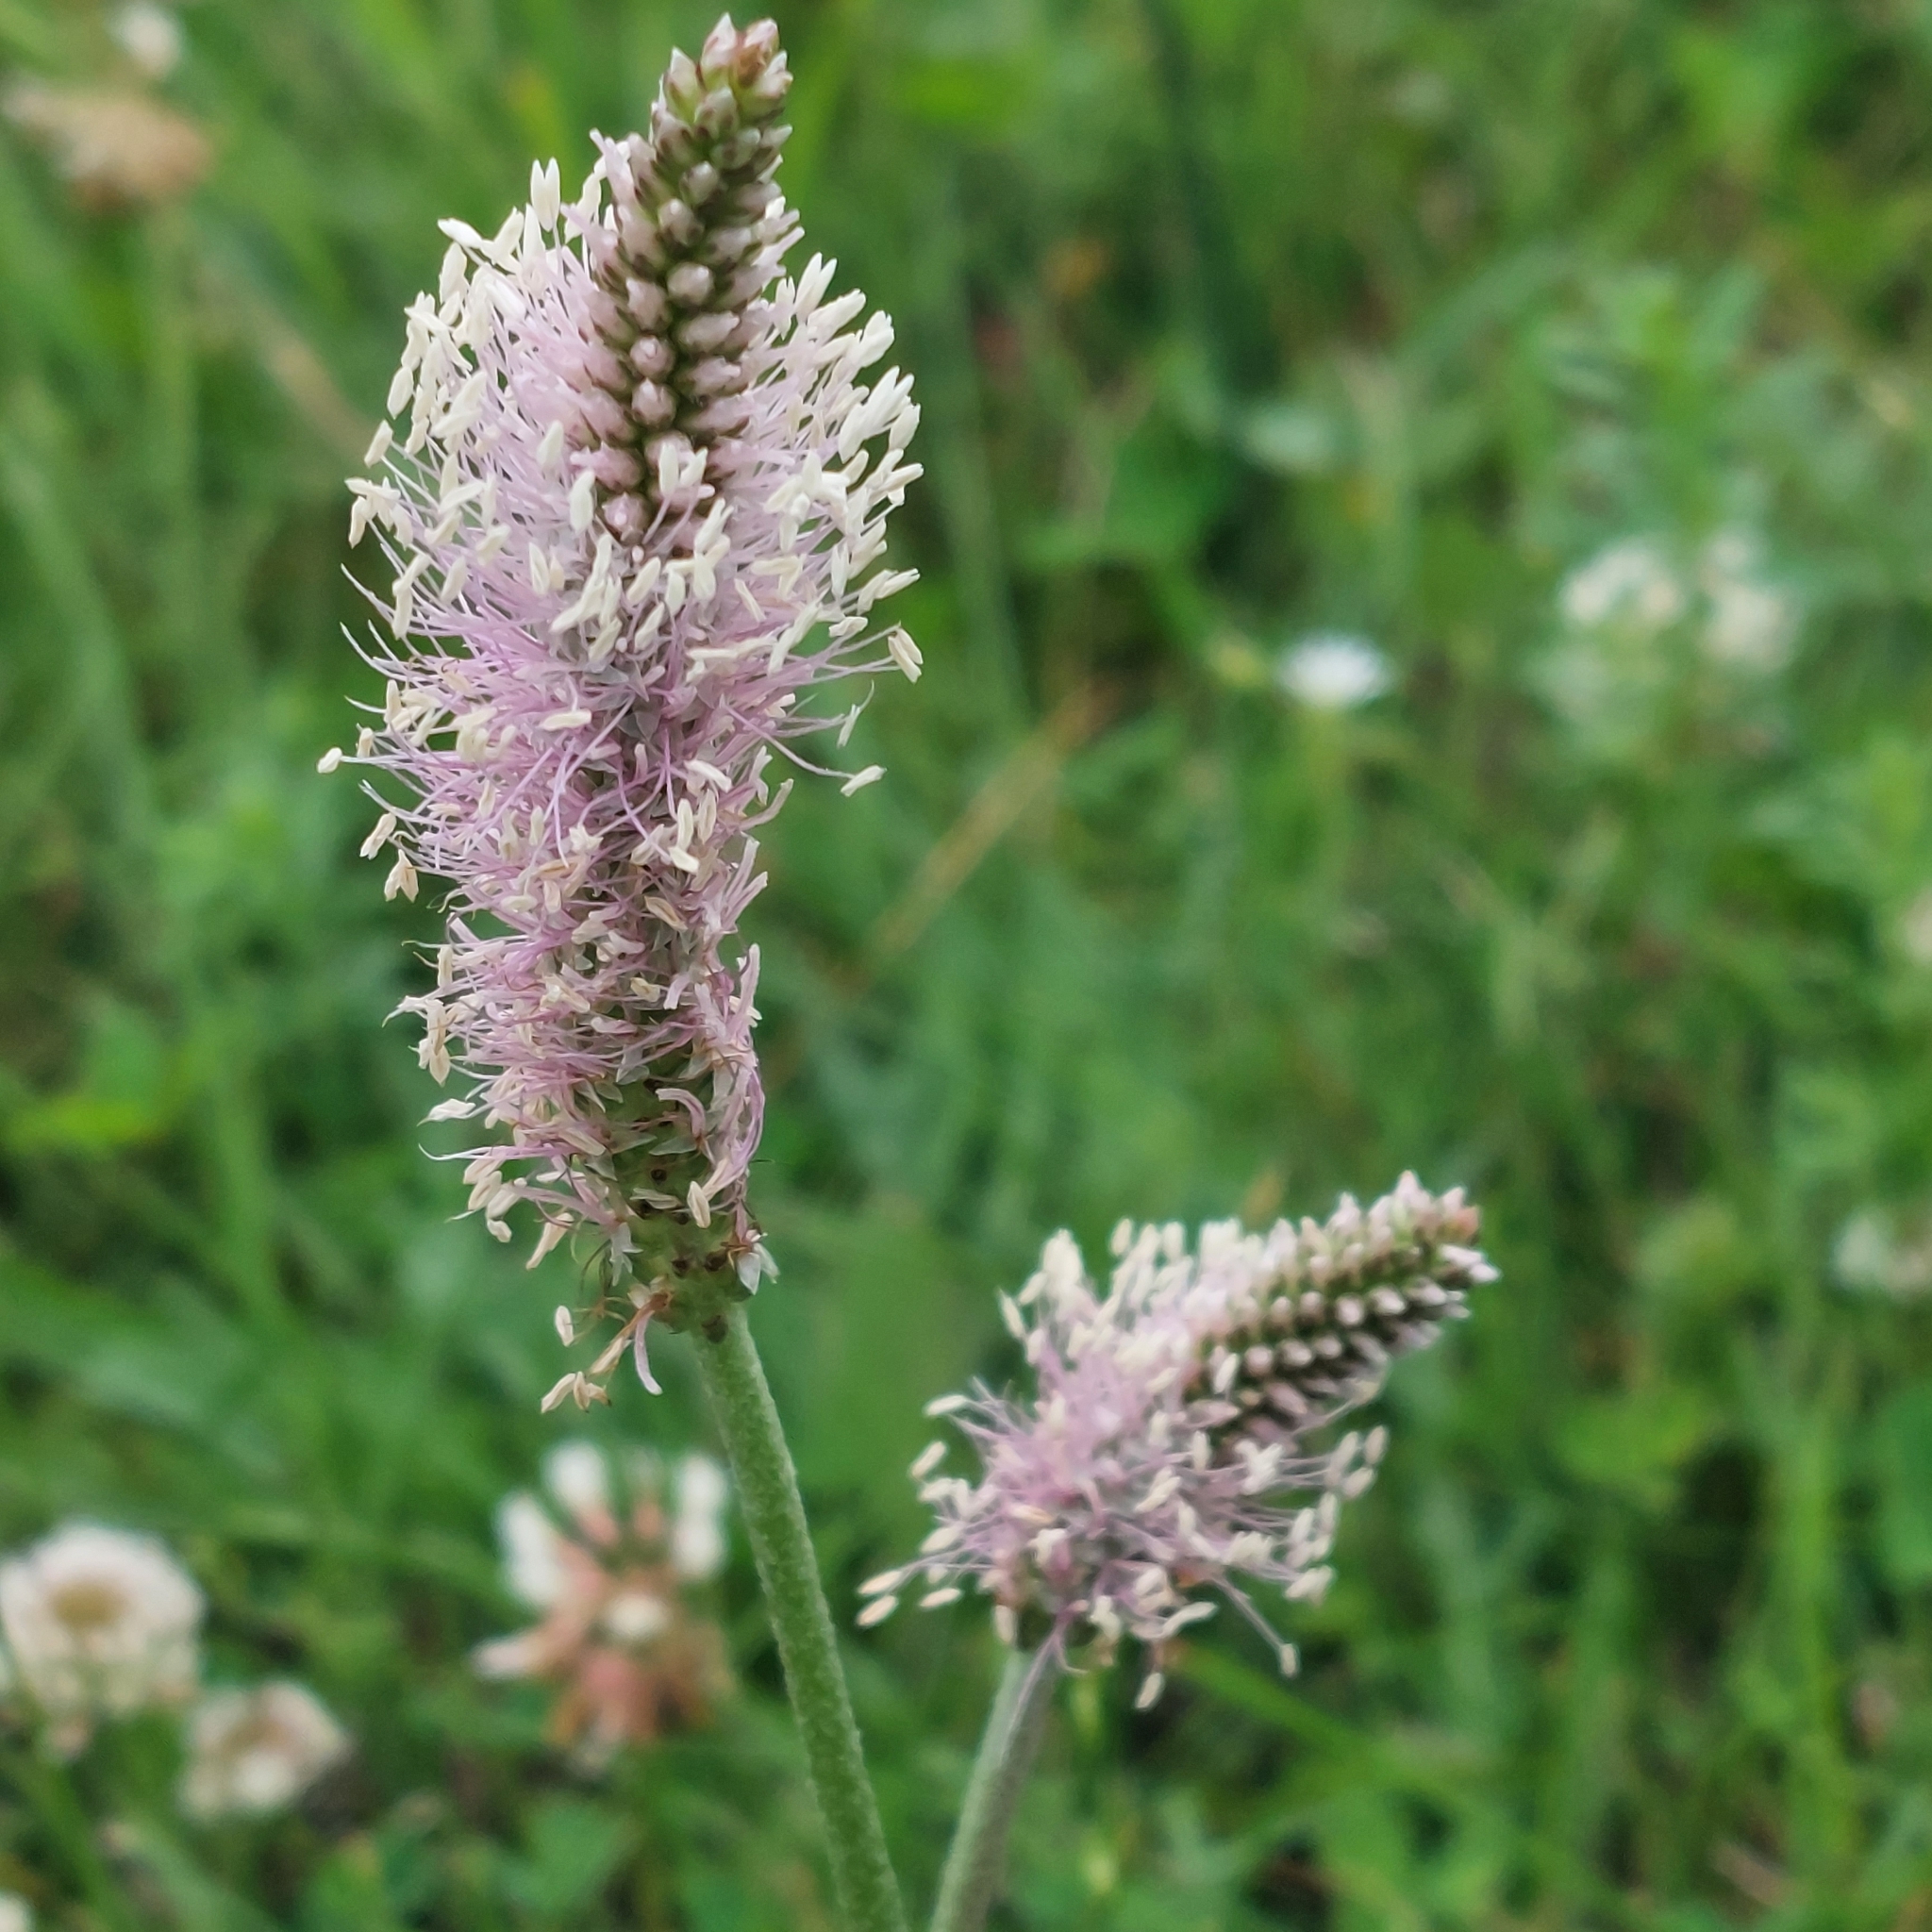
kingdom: Plantae
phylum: Tracheophyta
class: Magnoliopsida
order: Lamiales
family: Plantaginaceae
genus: Plantago
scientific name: Plantago media
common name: Hoary plantain
